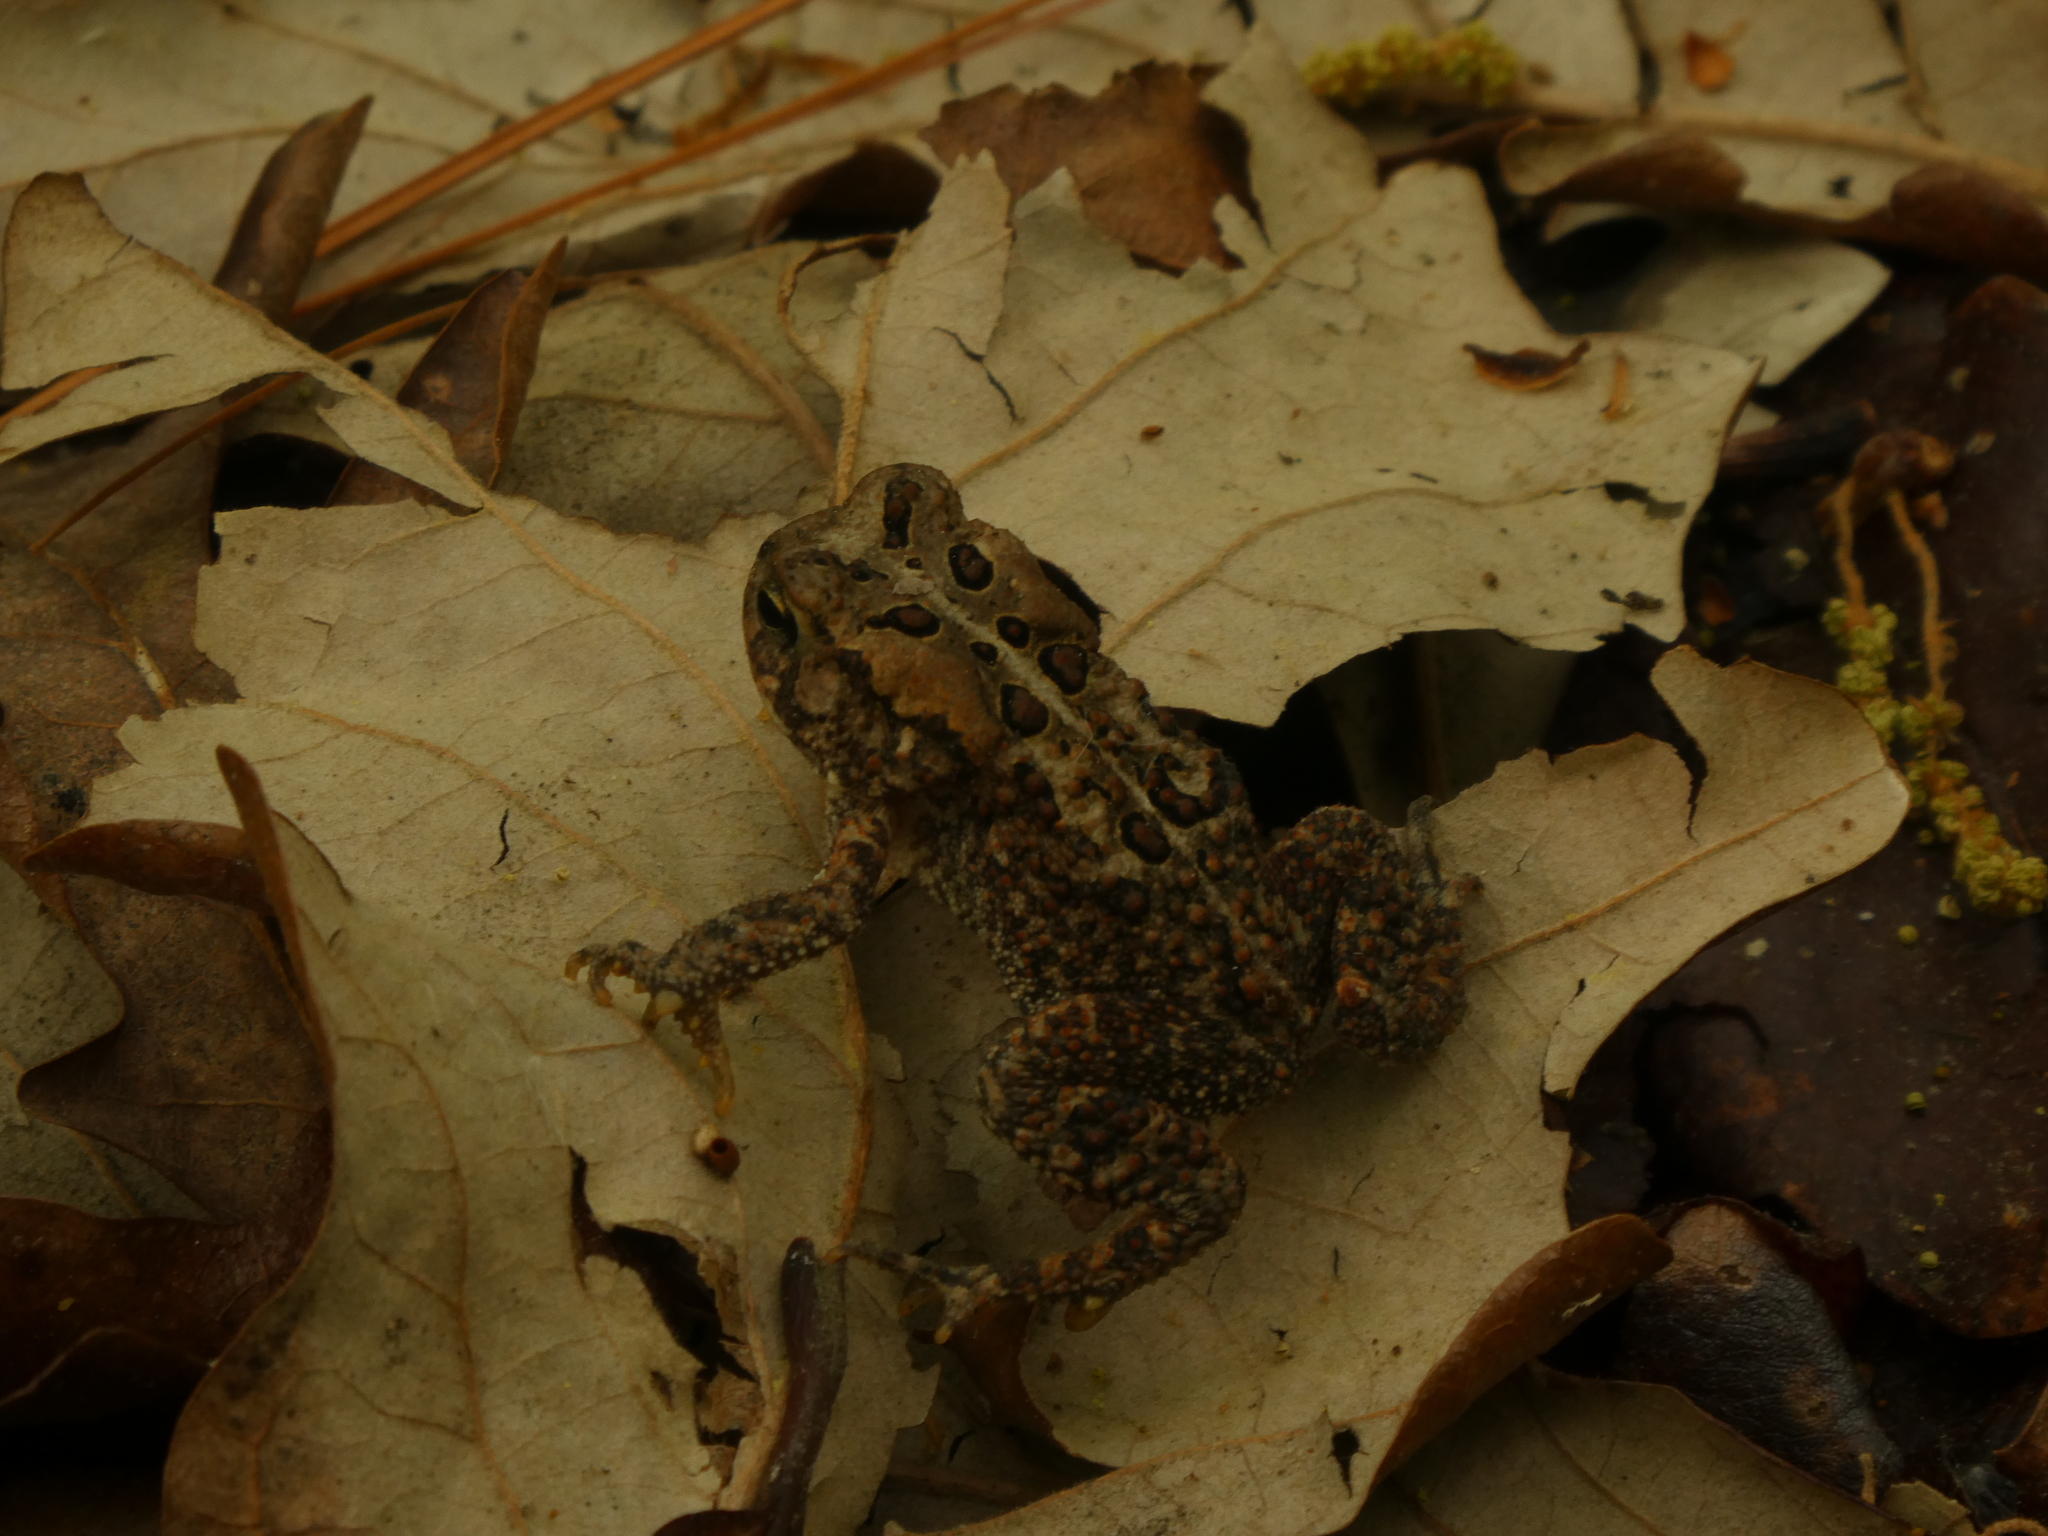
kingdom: Animalia
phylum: Chordata
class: Amphibia
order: Anura
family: Bufonidae
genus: Anaxyrus
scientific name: Anaxyrus americanus
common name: American toad
